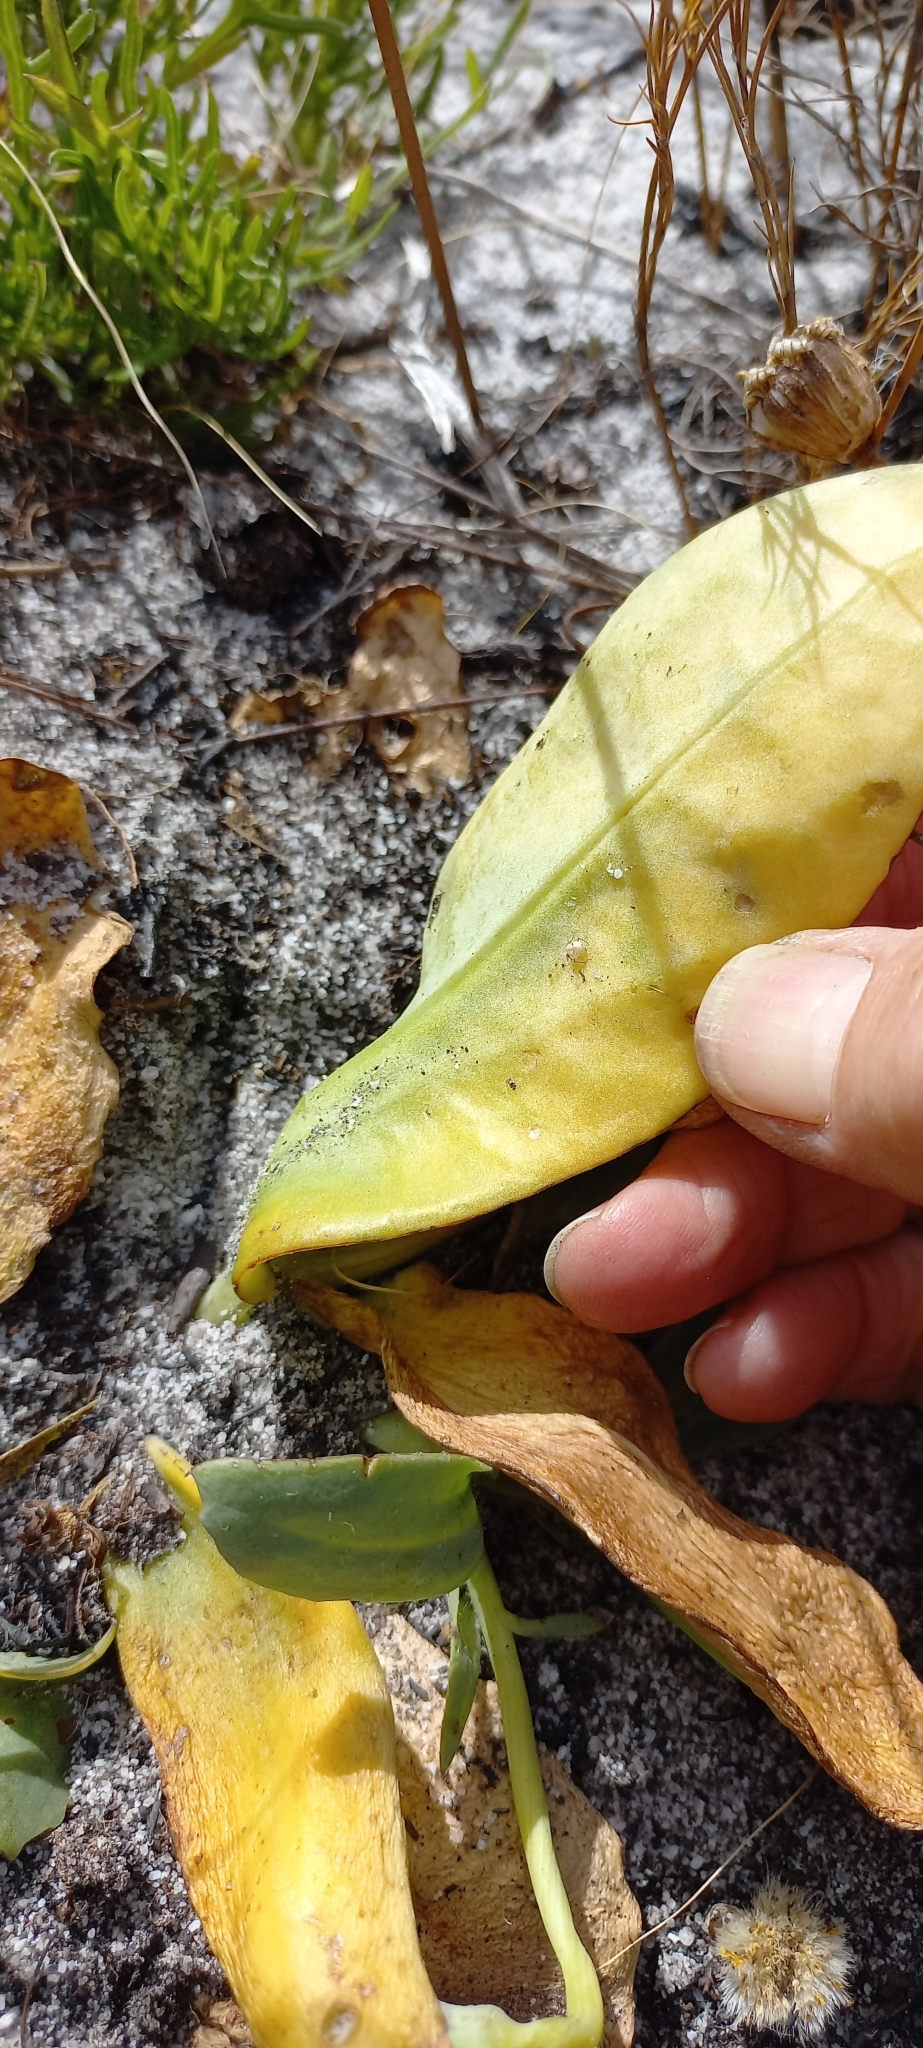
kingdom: Plantae
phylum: Tracheophyta
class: Magnoliopsida
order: Asterales
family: Asteraceae
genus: Othonna
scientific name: Othonna bulbosa
